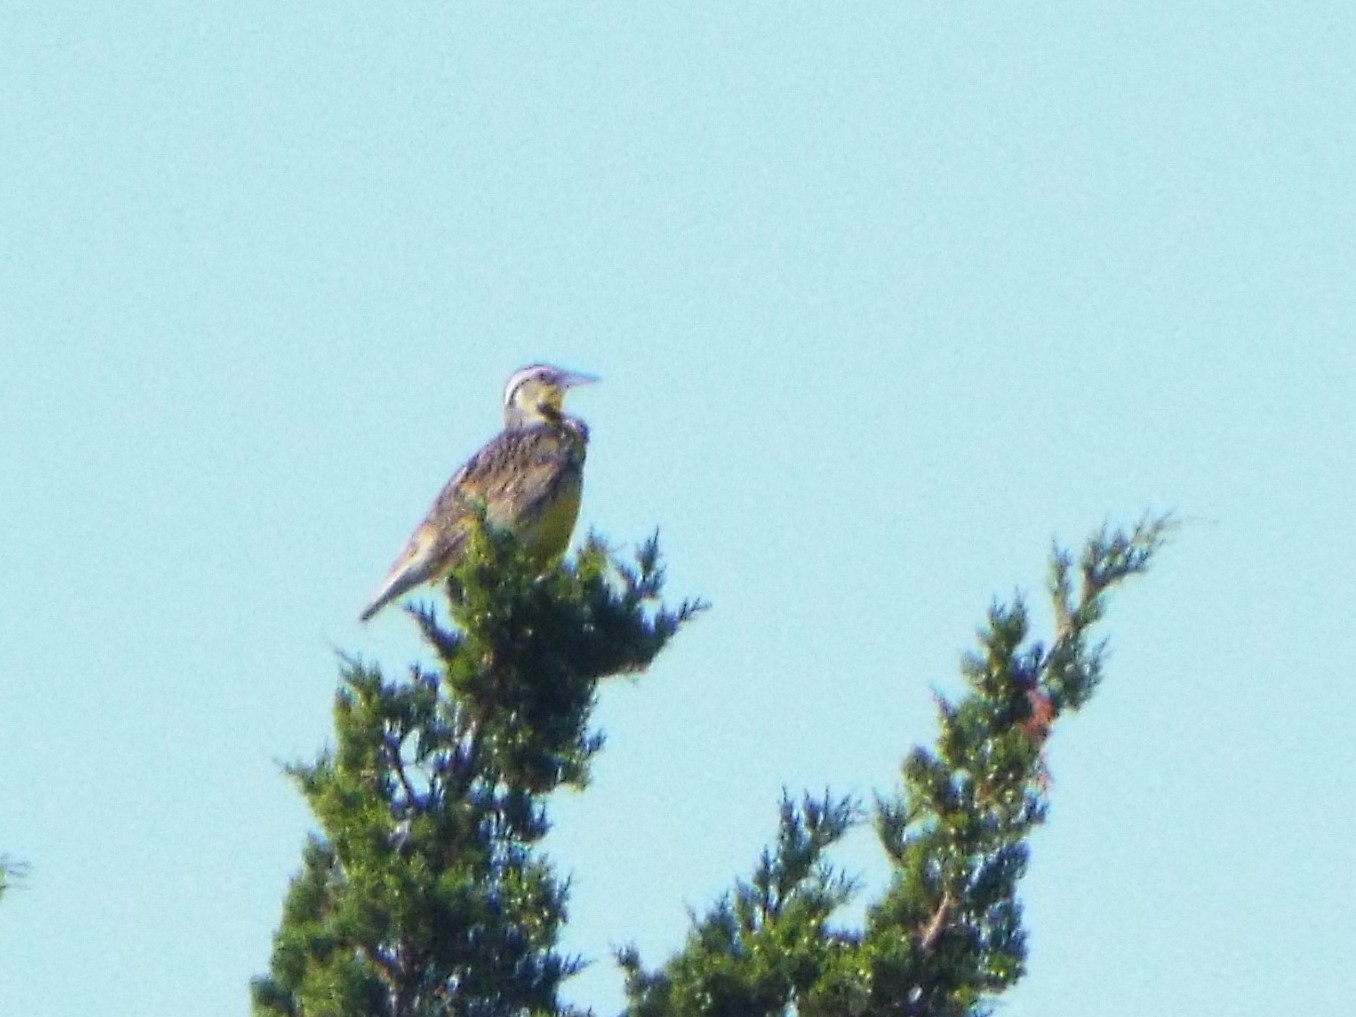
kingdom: Animalia
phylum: Chordata
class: Aves
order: Passeriformes
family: Icteridae
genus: Sturnella
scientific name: Sturnella magna
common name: Eastern meadowlark
